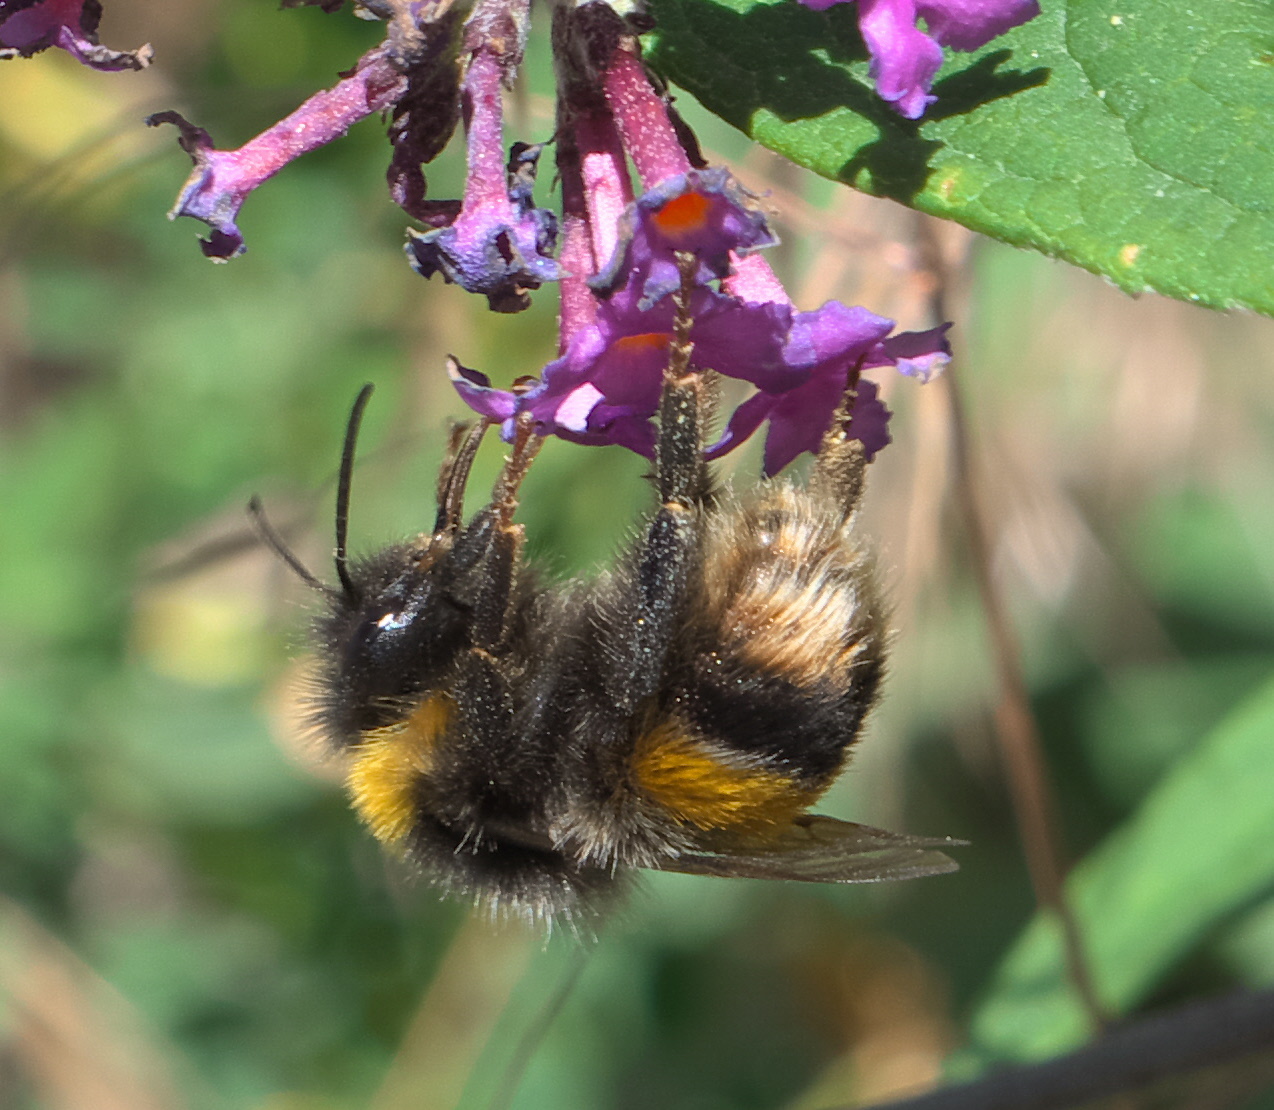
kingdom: Animalia
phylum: Arthropoda
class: Insecta
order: Hymenoptera
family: Apidae
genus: Bombus
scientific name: Bombus terrestris
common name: Buff-tailed bumblebee
